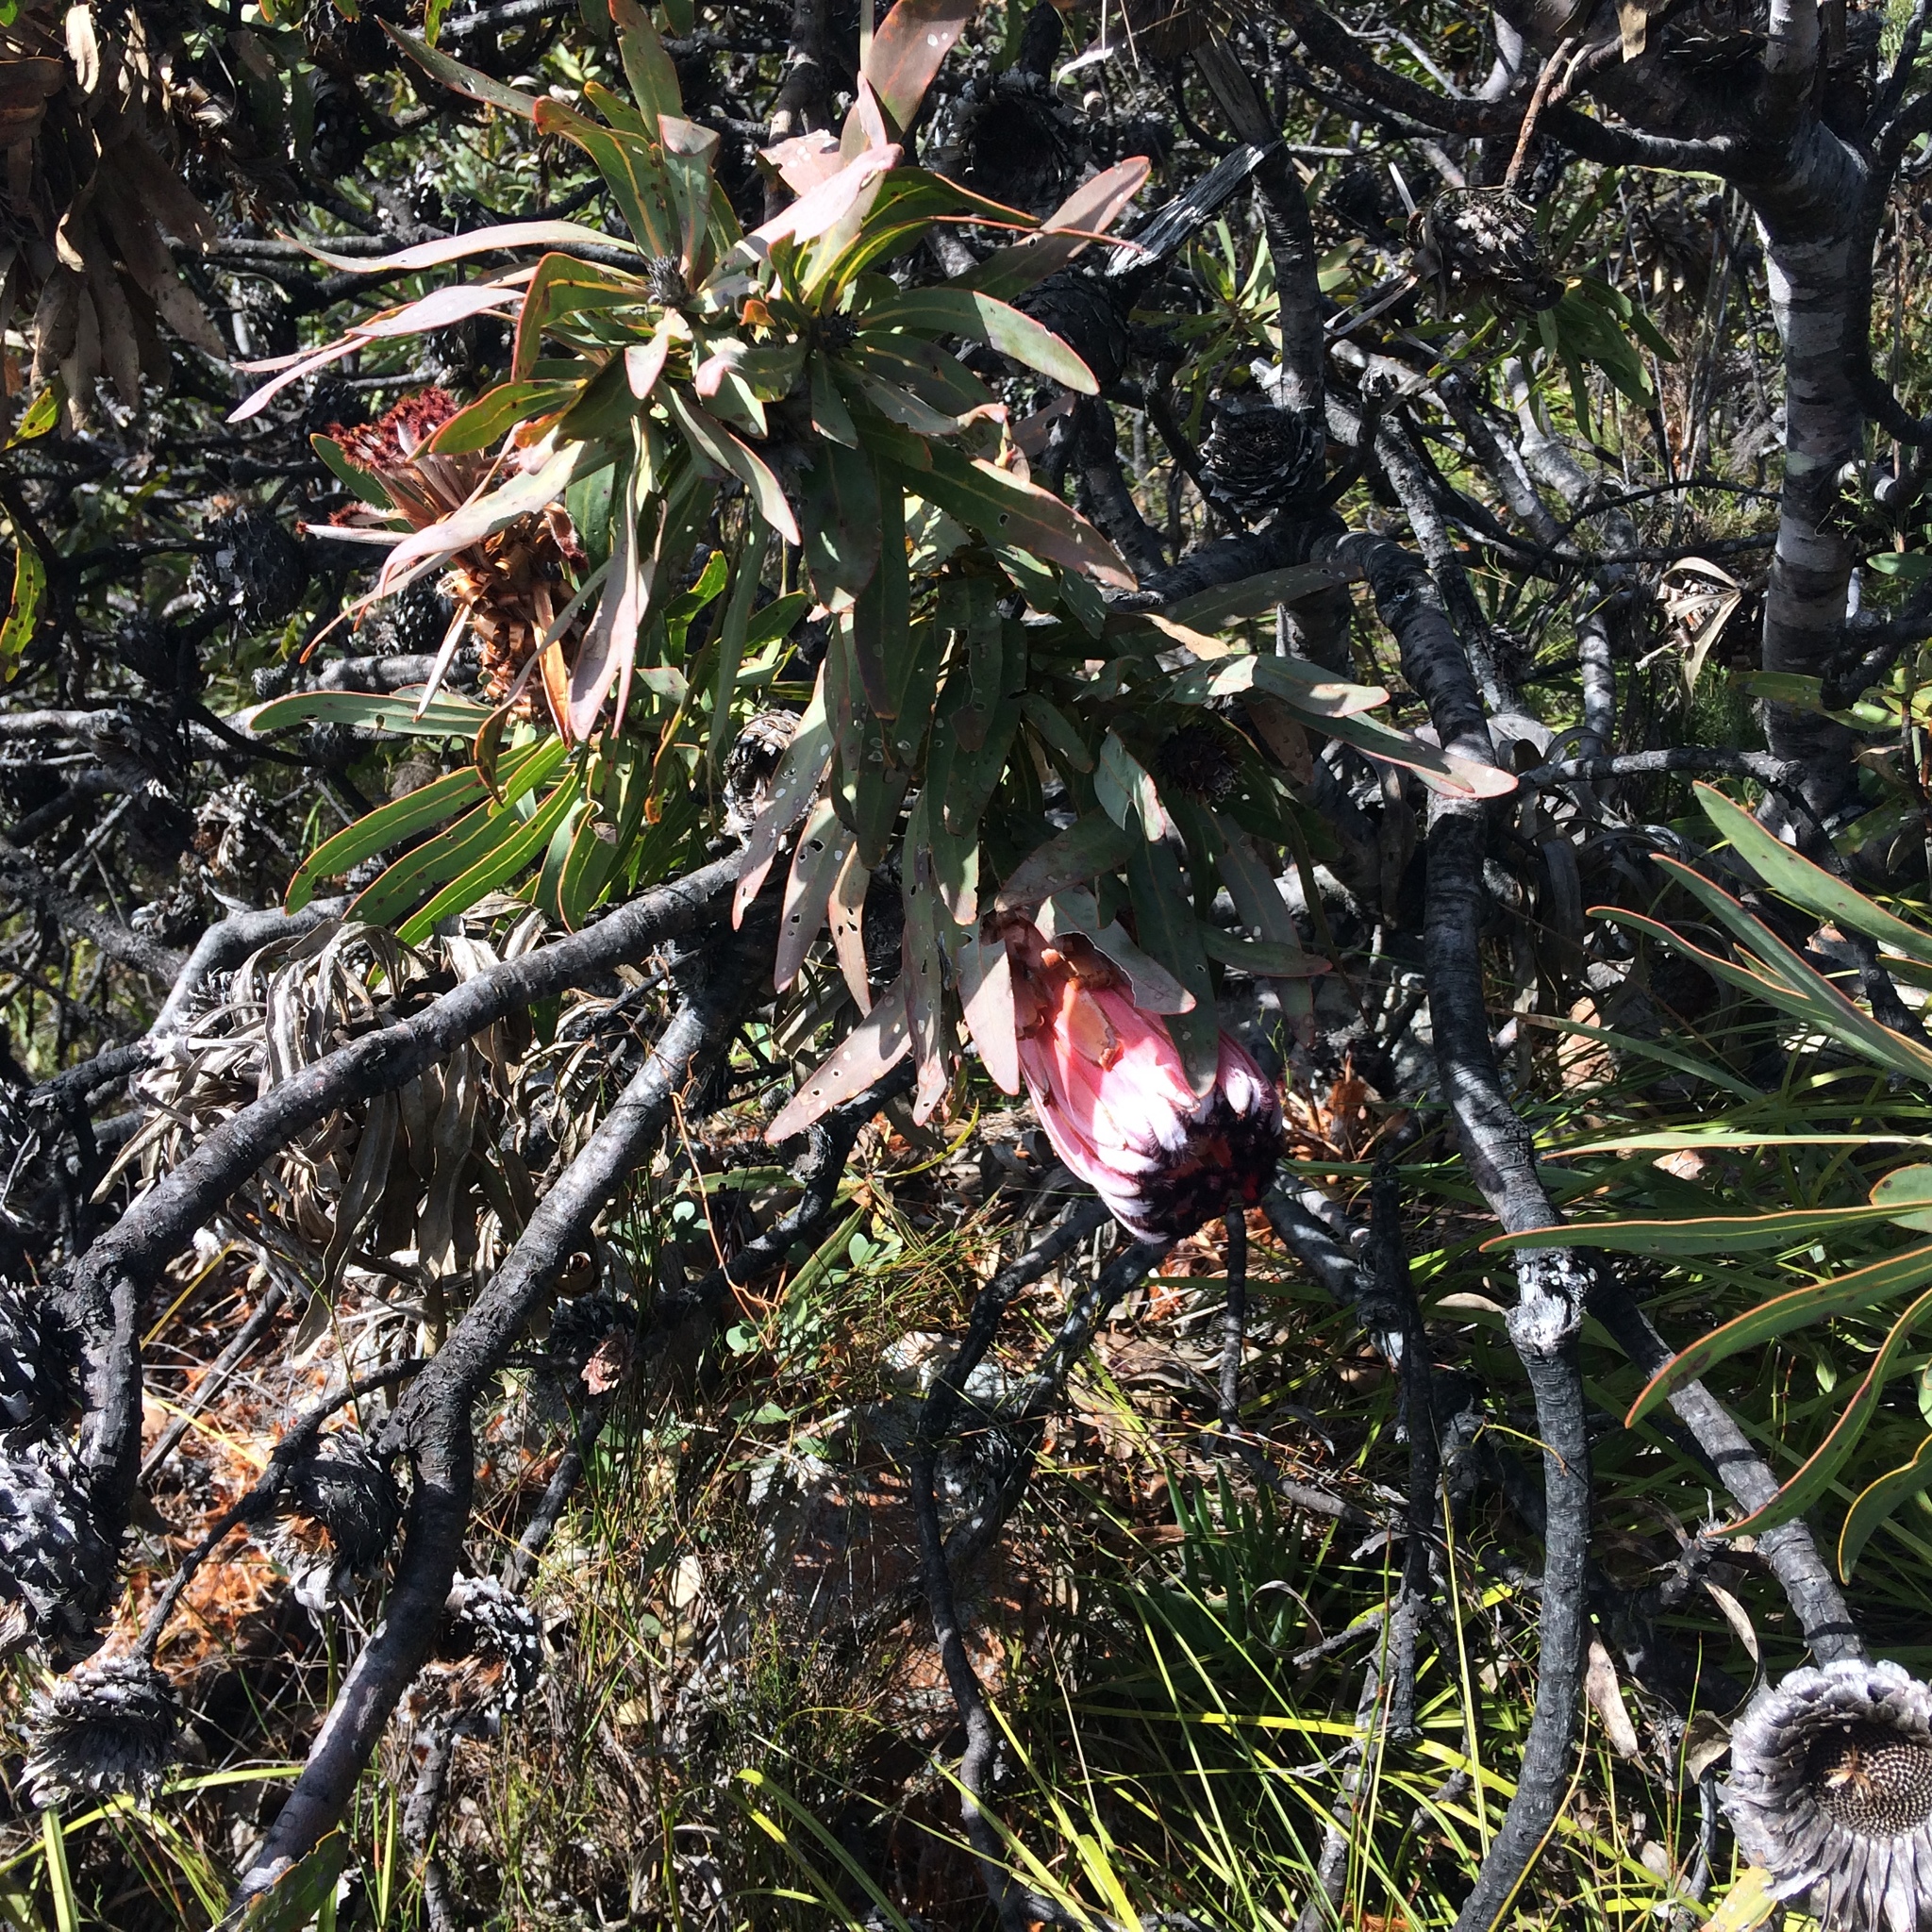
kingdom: Plantae
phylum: Tracheophyta
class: Magnoliopsida
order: Proteales
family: Proteaceae
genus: Protea
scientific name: Protea neriifolia
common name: Blue sugarbush
